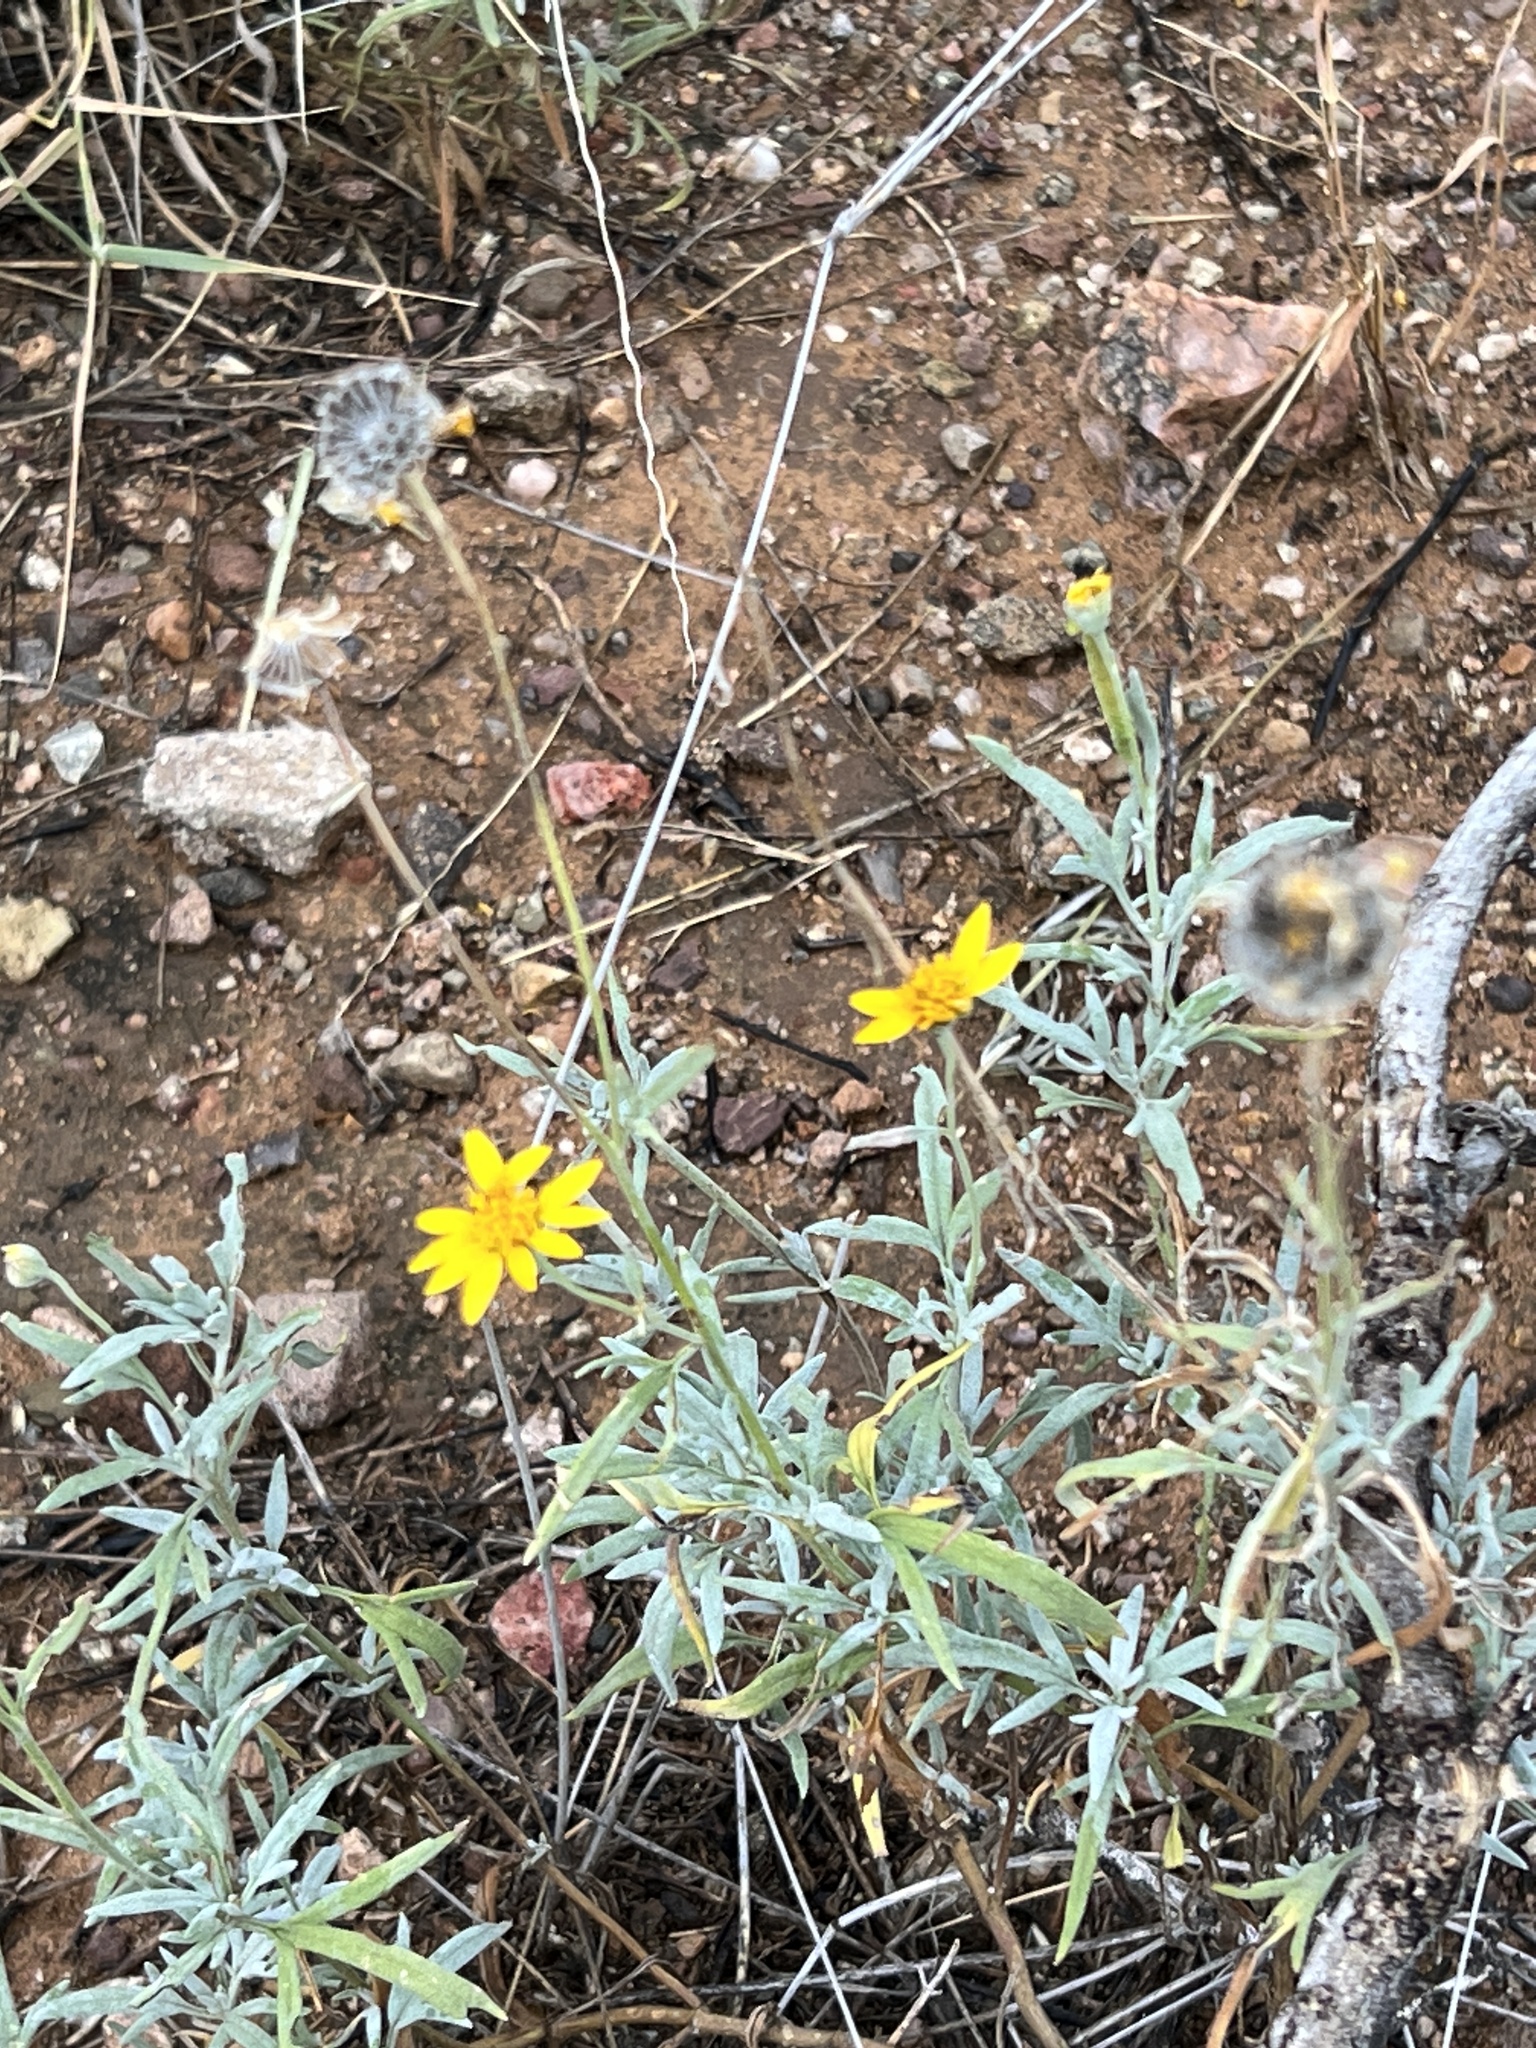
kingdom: Plantae
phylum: Tracheophyta
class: Magnoliopsida
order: Asterales
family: Asteraceae
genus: Picradeniopsis
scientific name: Picradeniopsis absinthifolia
